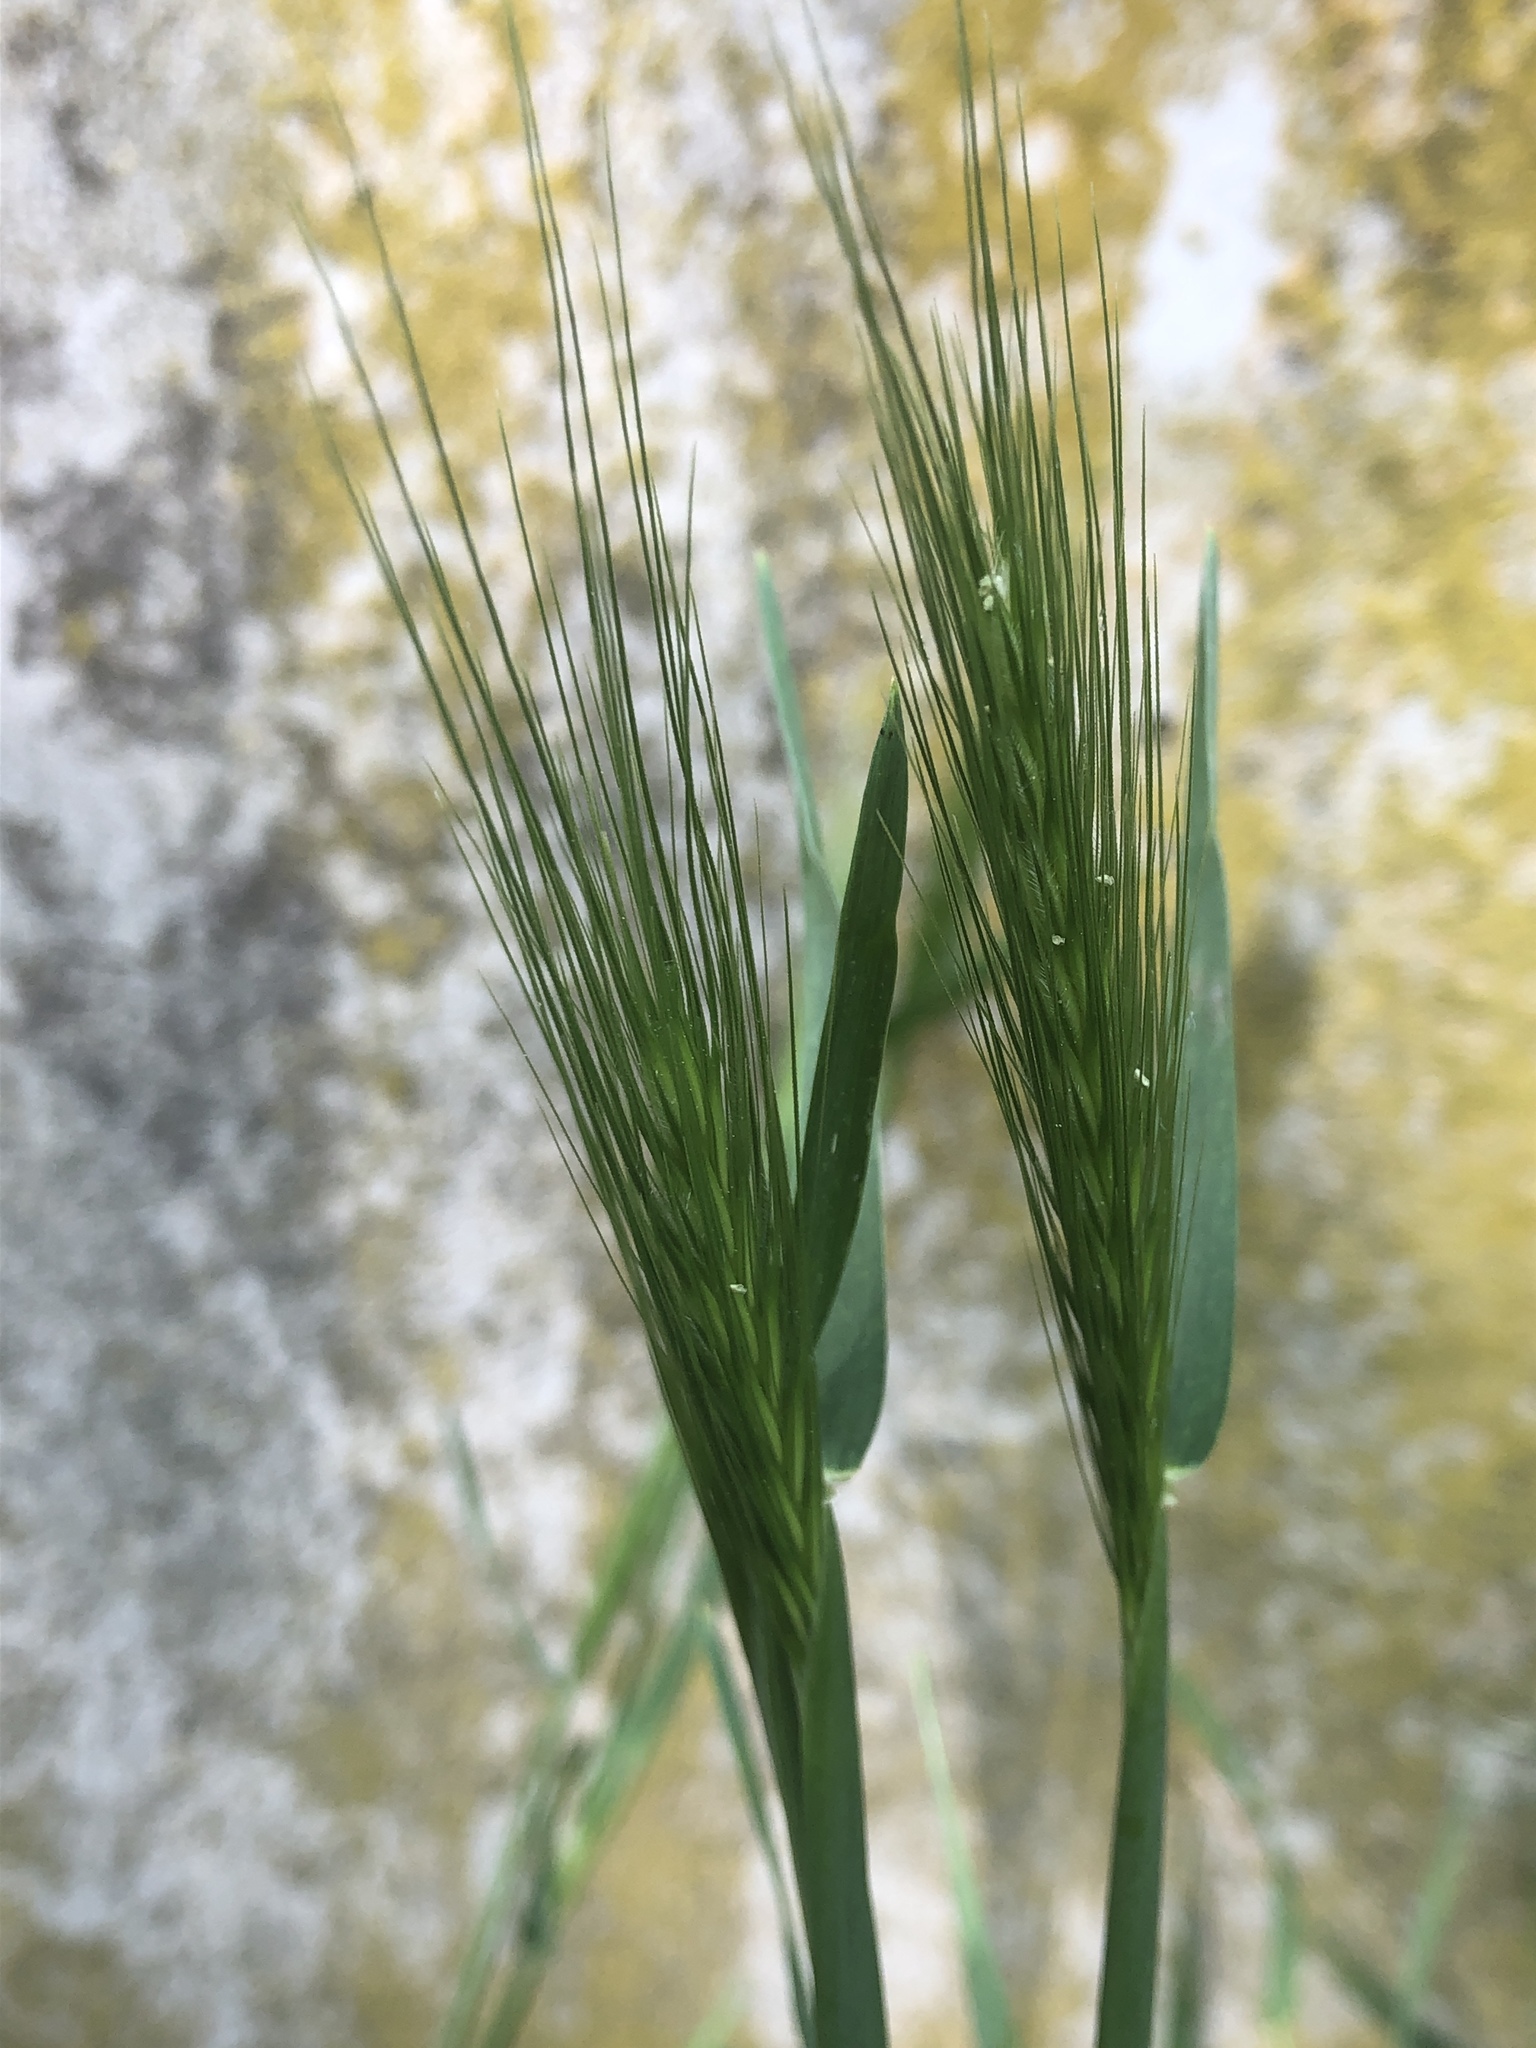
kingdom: Plantae
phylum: Tracheophyta
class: Liliopsida
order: Poales
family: Poaceae
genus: Hordeum
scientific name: Hordeum murinum
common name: Wall barley
